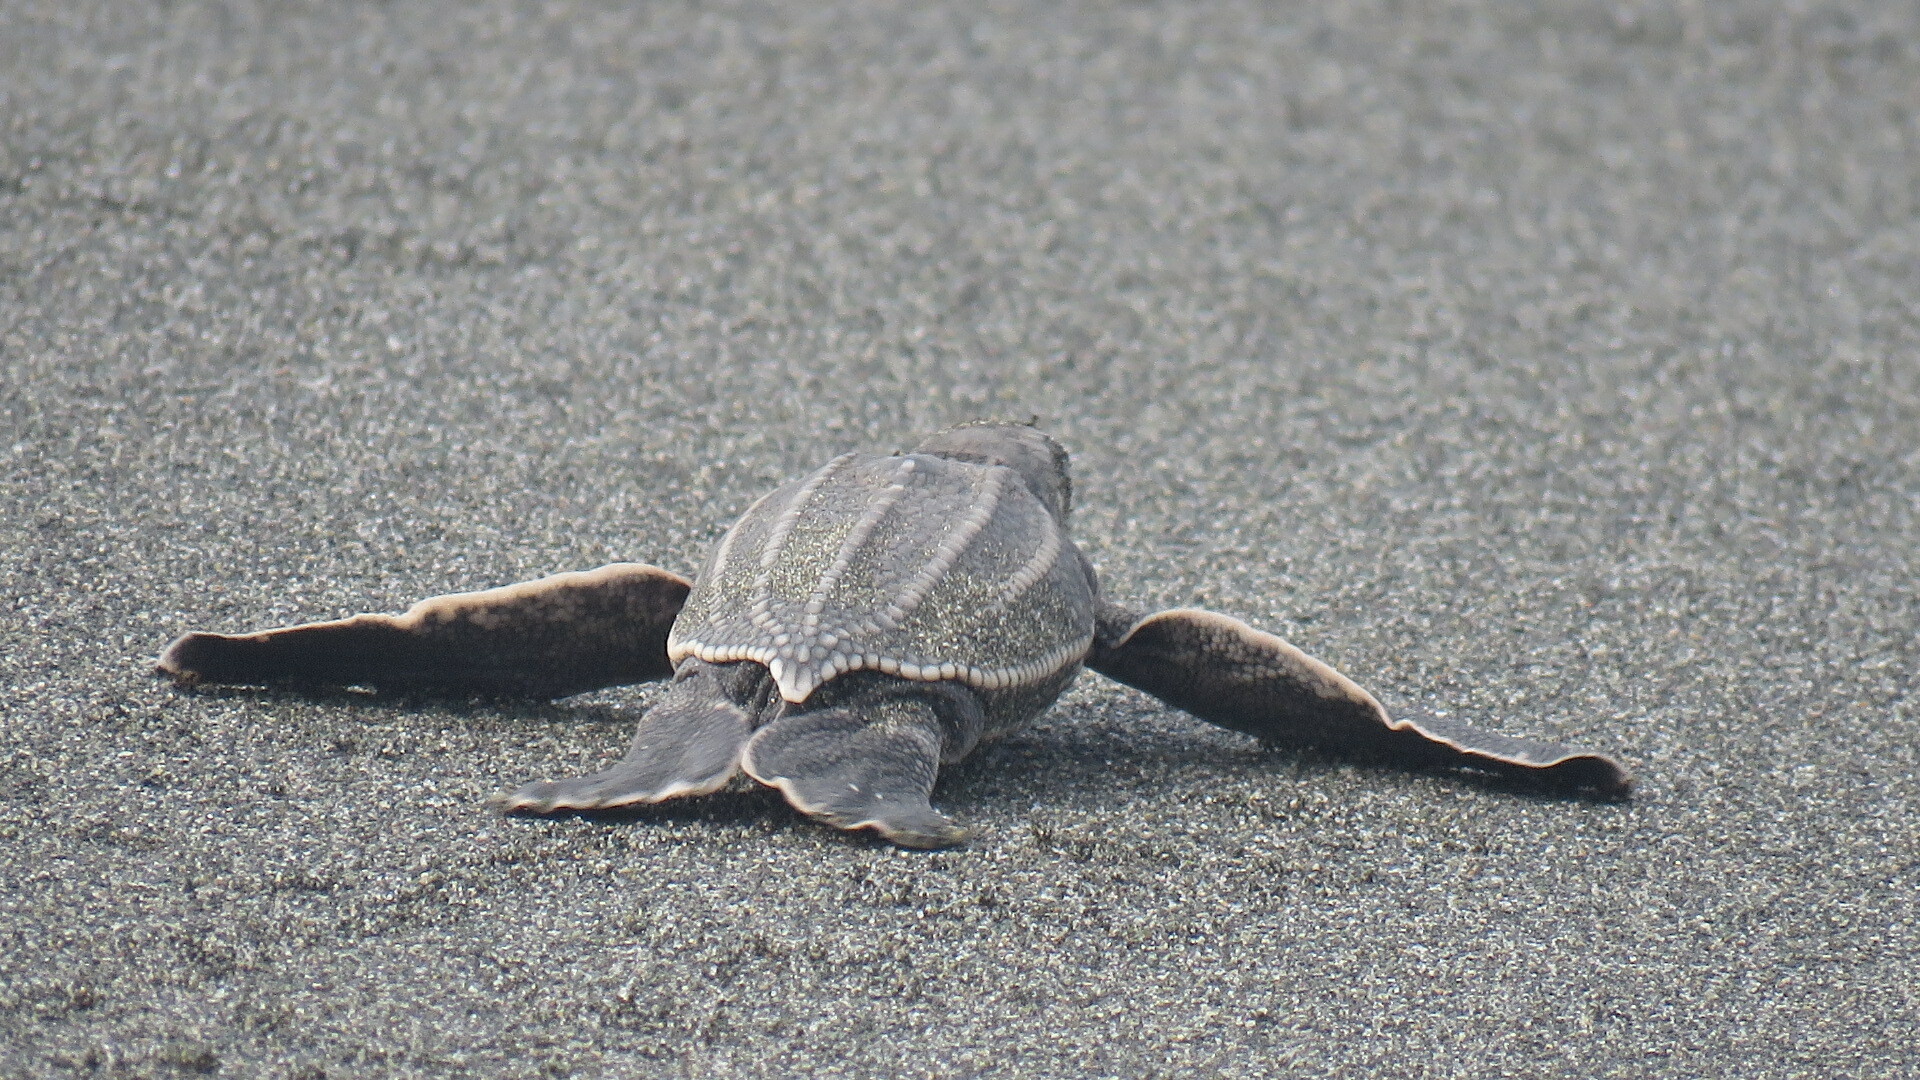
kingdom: Animalia
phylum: Chordata
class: Testudines
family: Dermochelyidae
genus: Dermochelys
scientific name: Dermochelys coriacea
